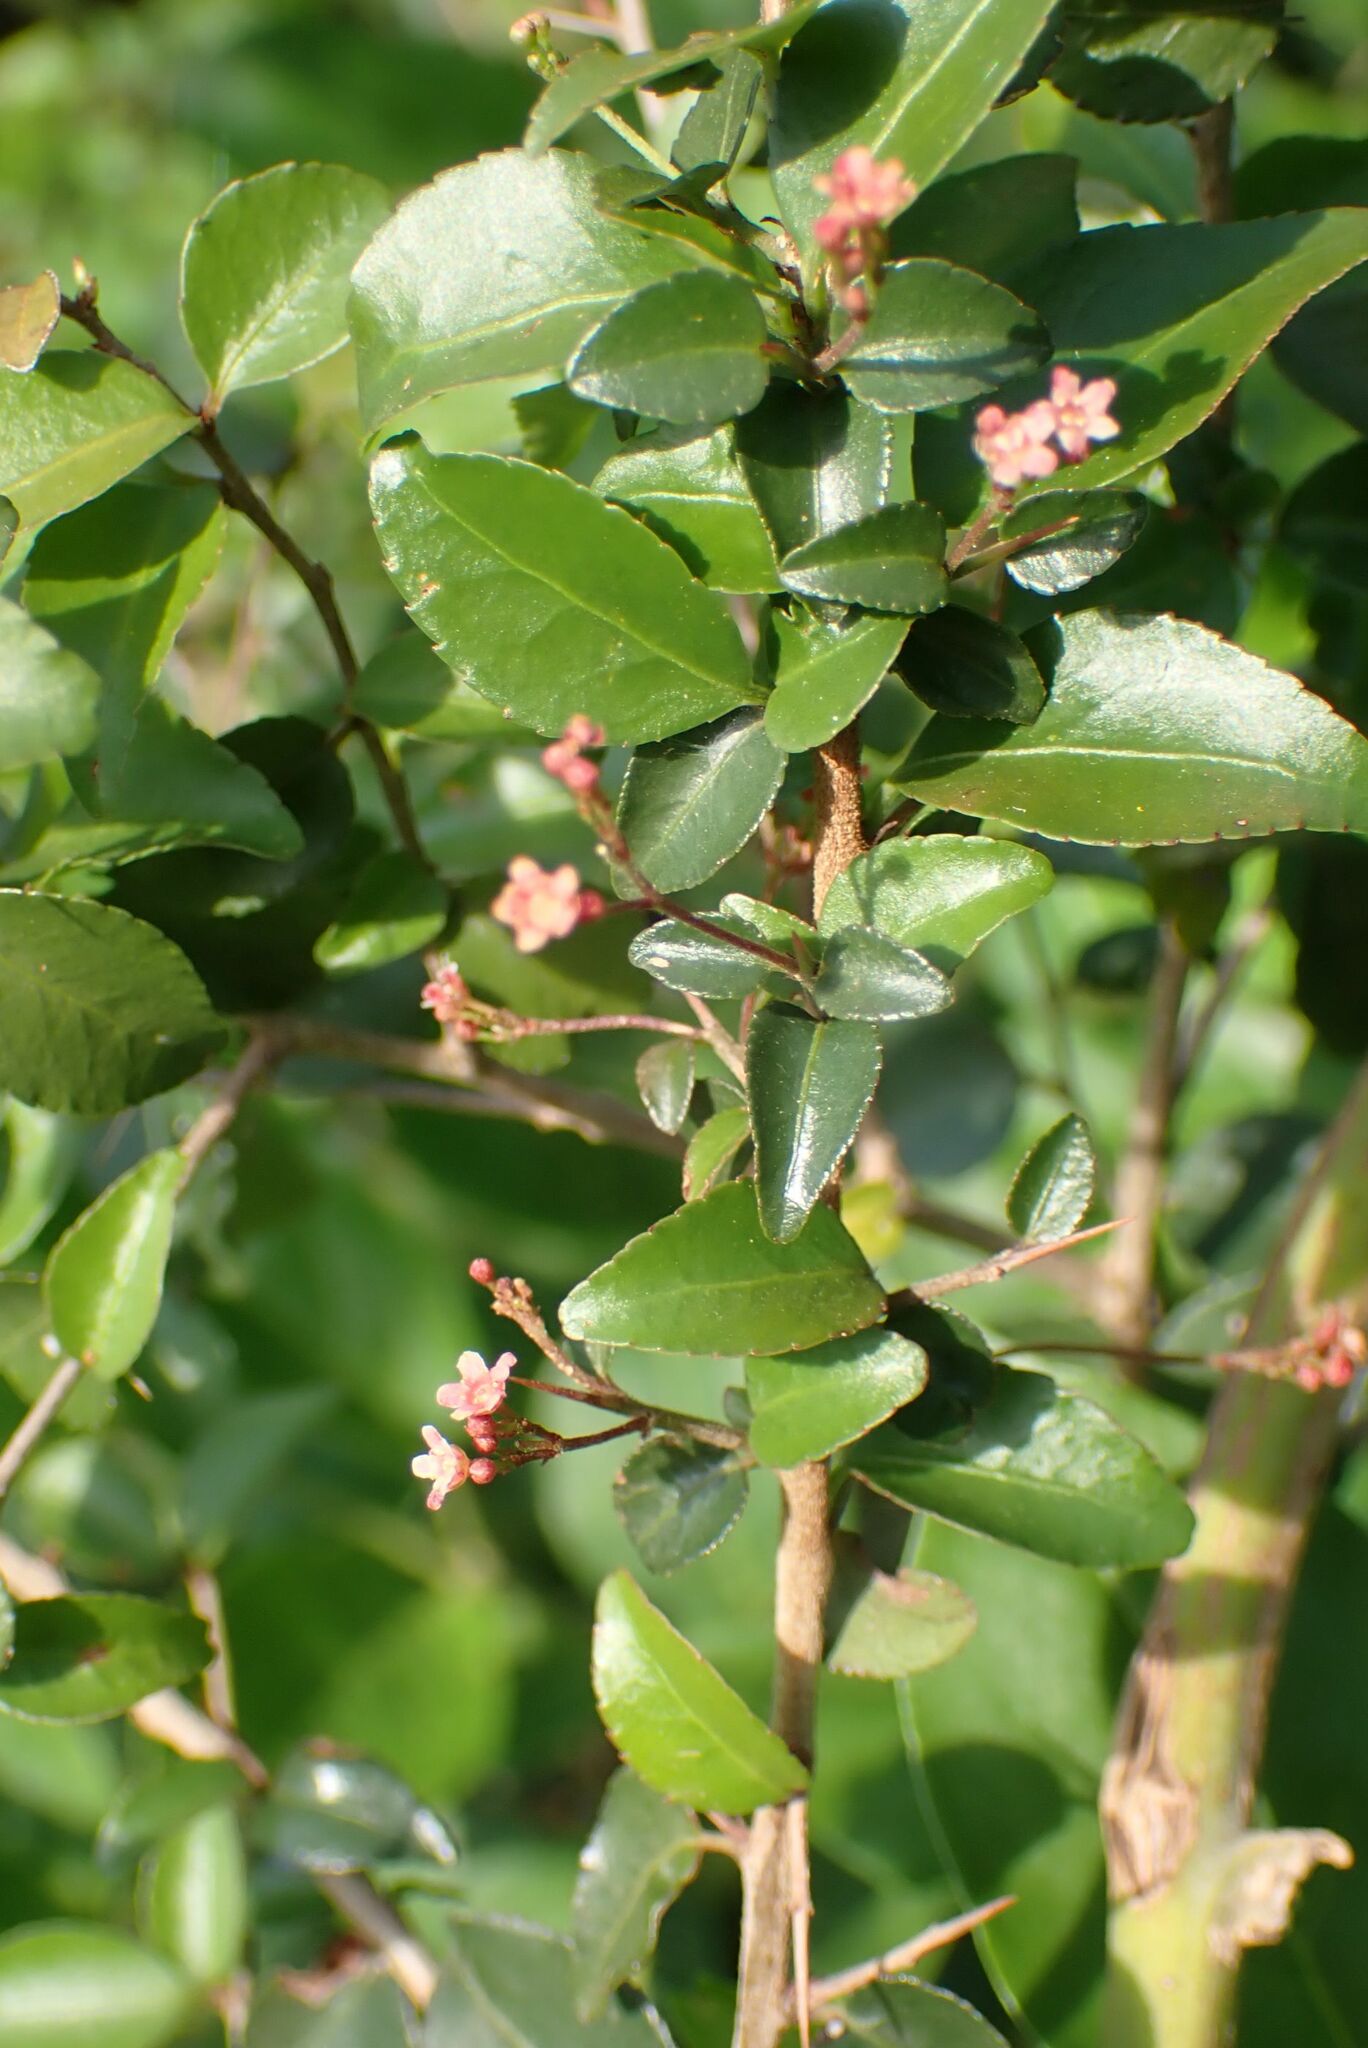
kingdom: Plantae
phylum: Tracheophyta
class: Magnoliopsida
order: Celastrales
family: Celastraceae
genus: Gymnosporia
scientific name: Gymnosporia rubra
